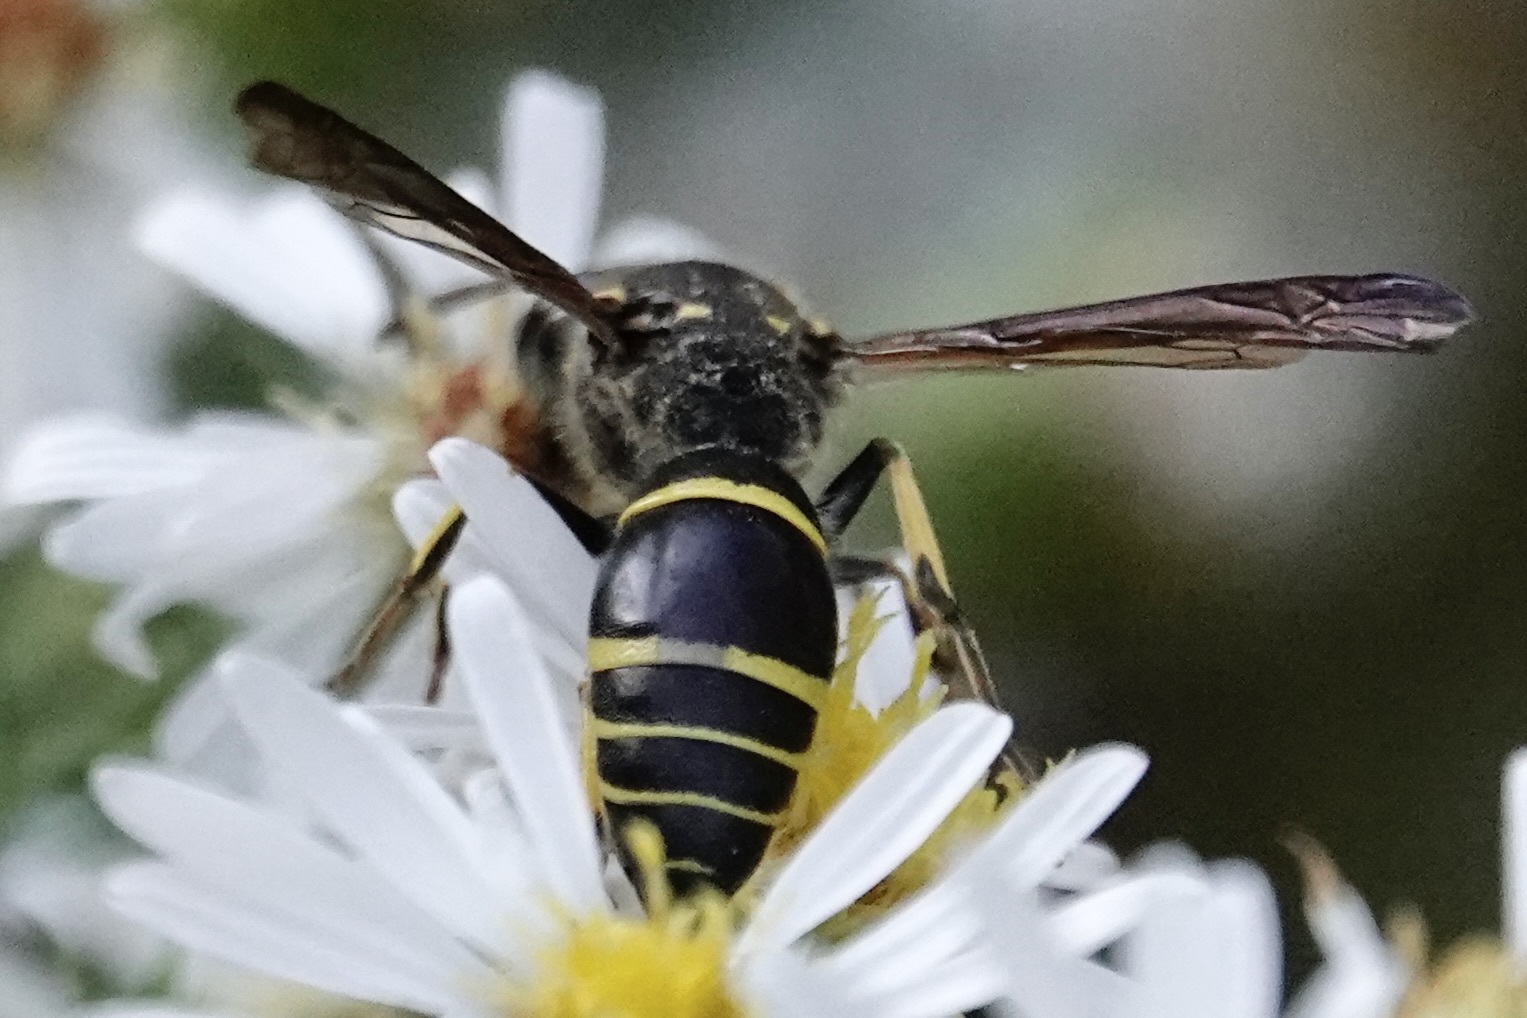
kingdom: Animalia
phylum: Arthropoda
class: Insecta
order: Hymenoptera
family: Vespidae
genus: Ancistrocerus
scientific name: Ancistrocerus
